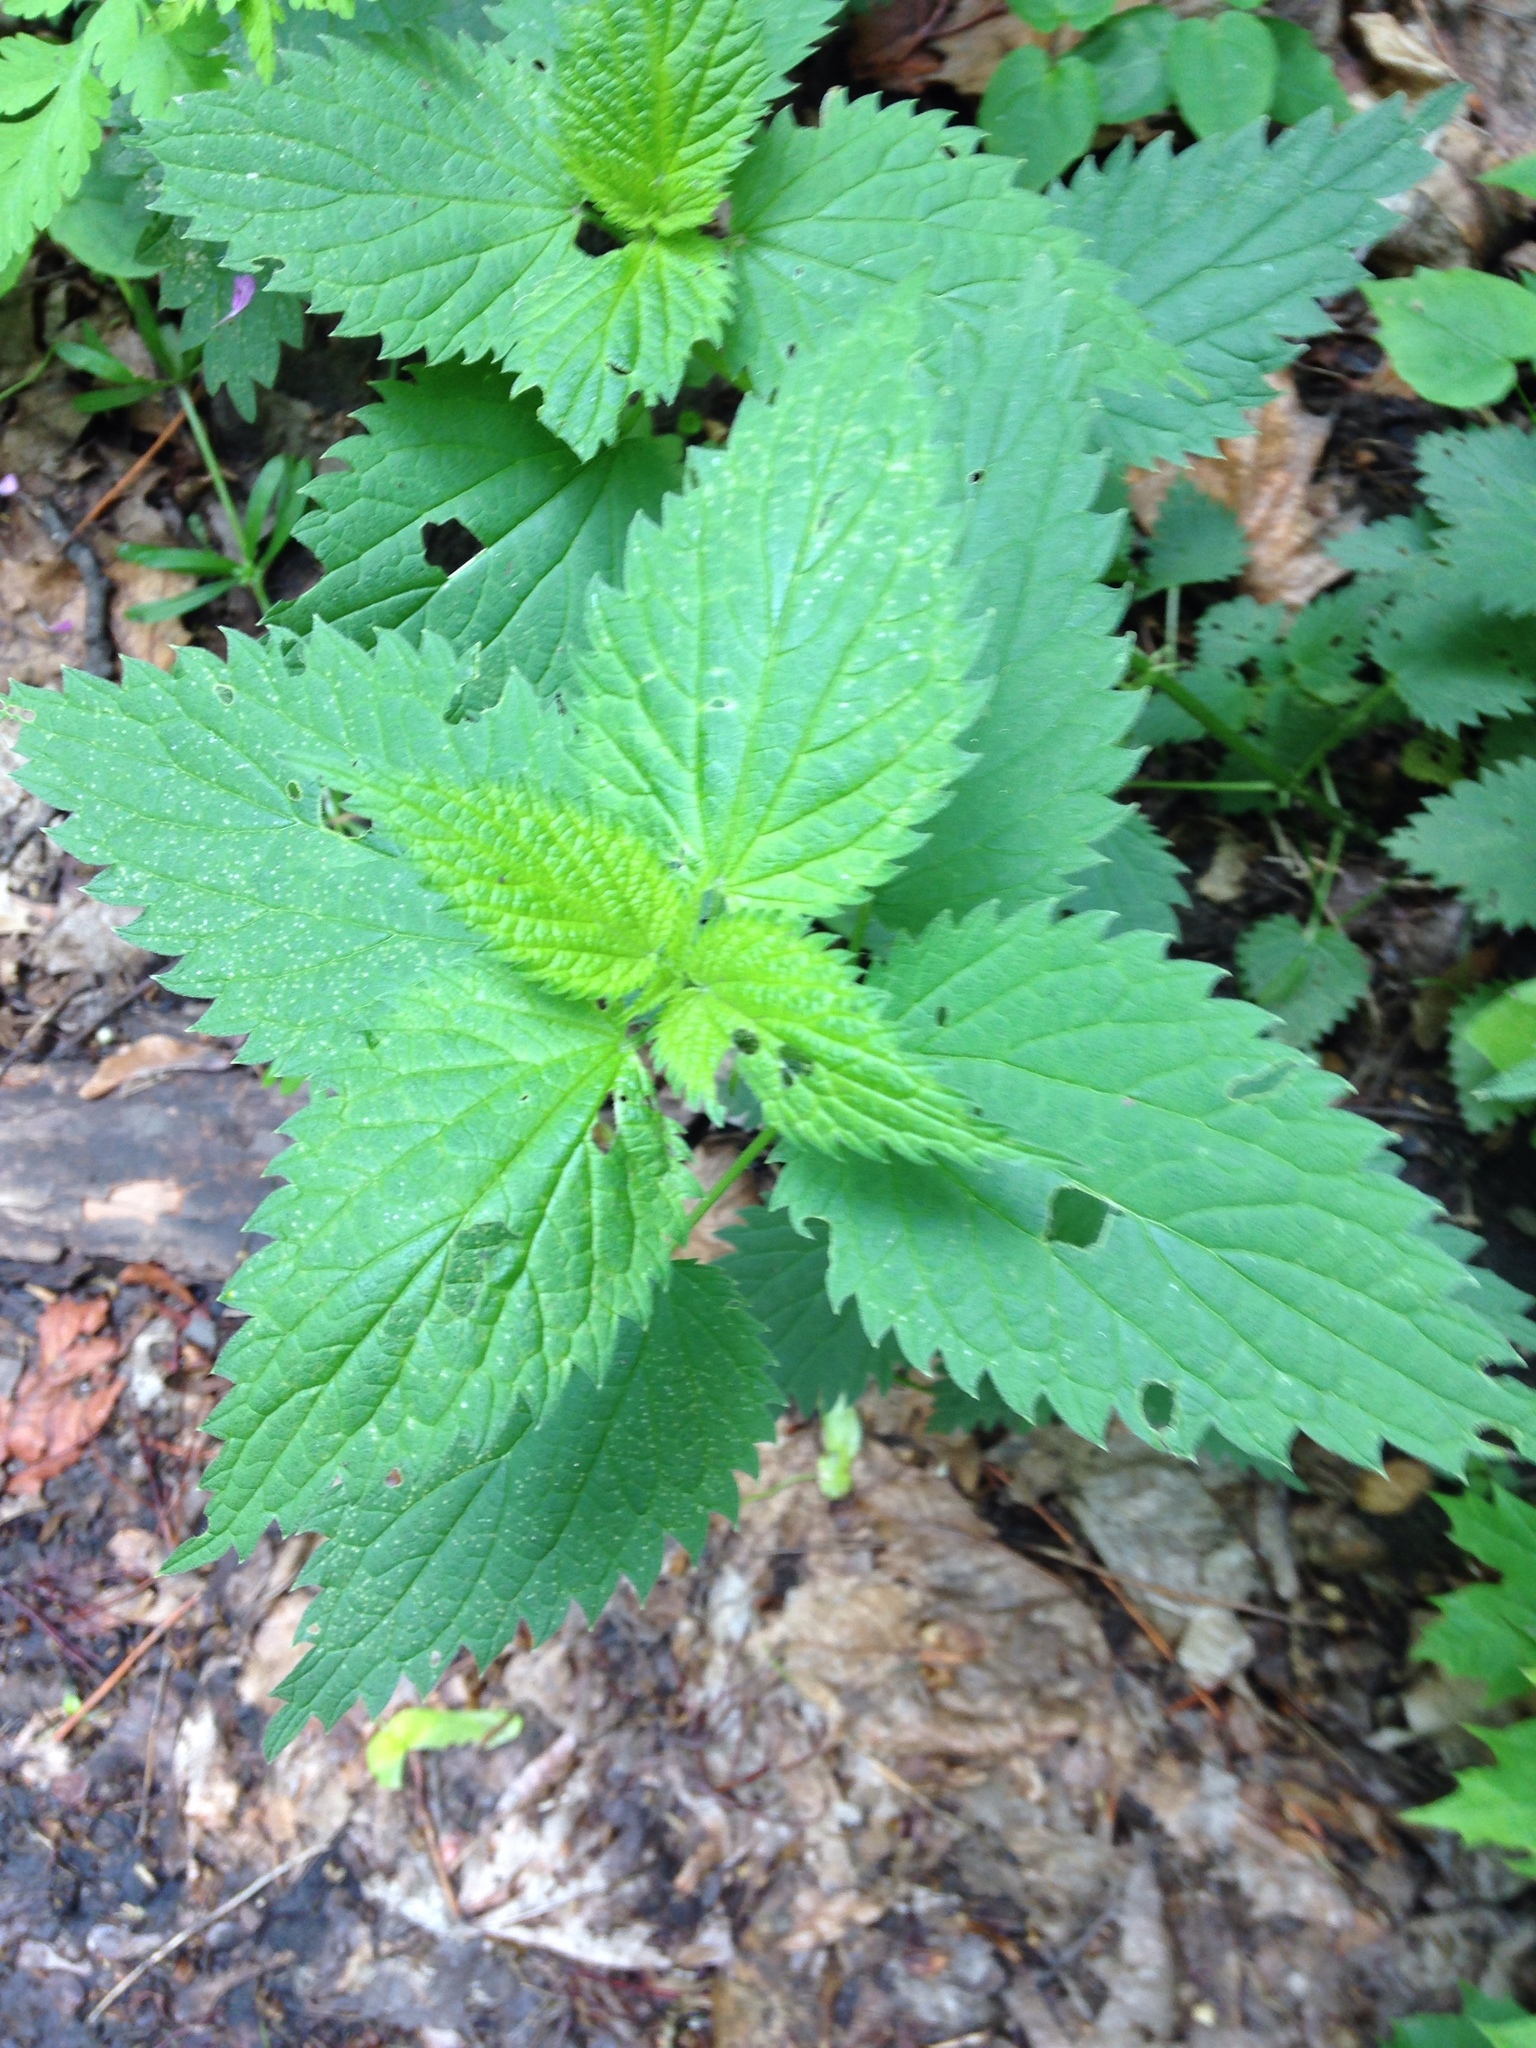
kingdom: Plantae
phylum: Tracheophyta
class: Magnoliopsida
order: Rosales
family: Urticaceae
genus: Urtica
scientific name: Urtica dioica
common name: Common nettle
